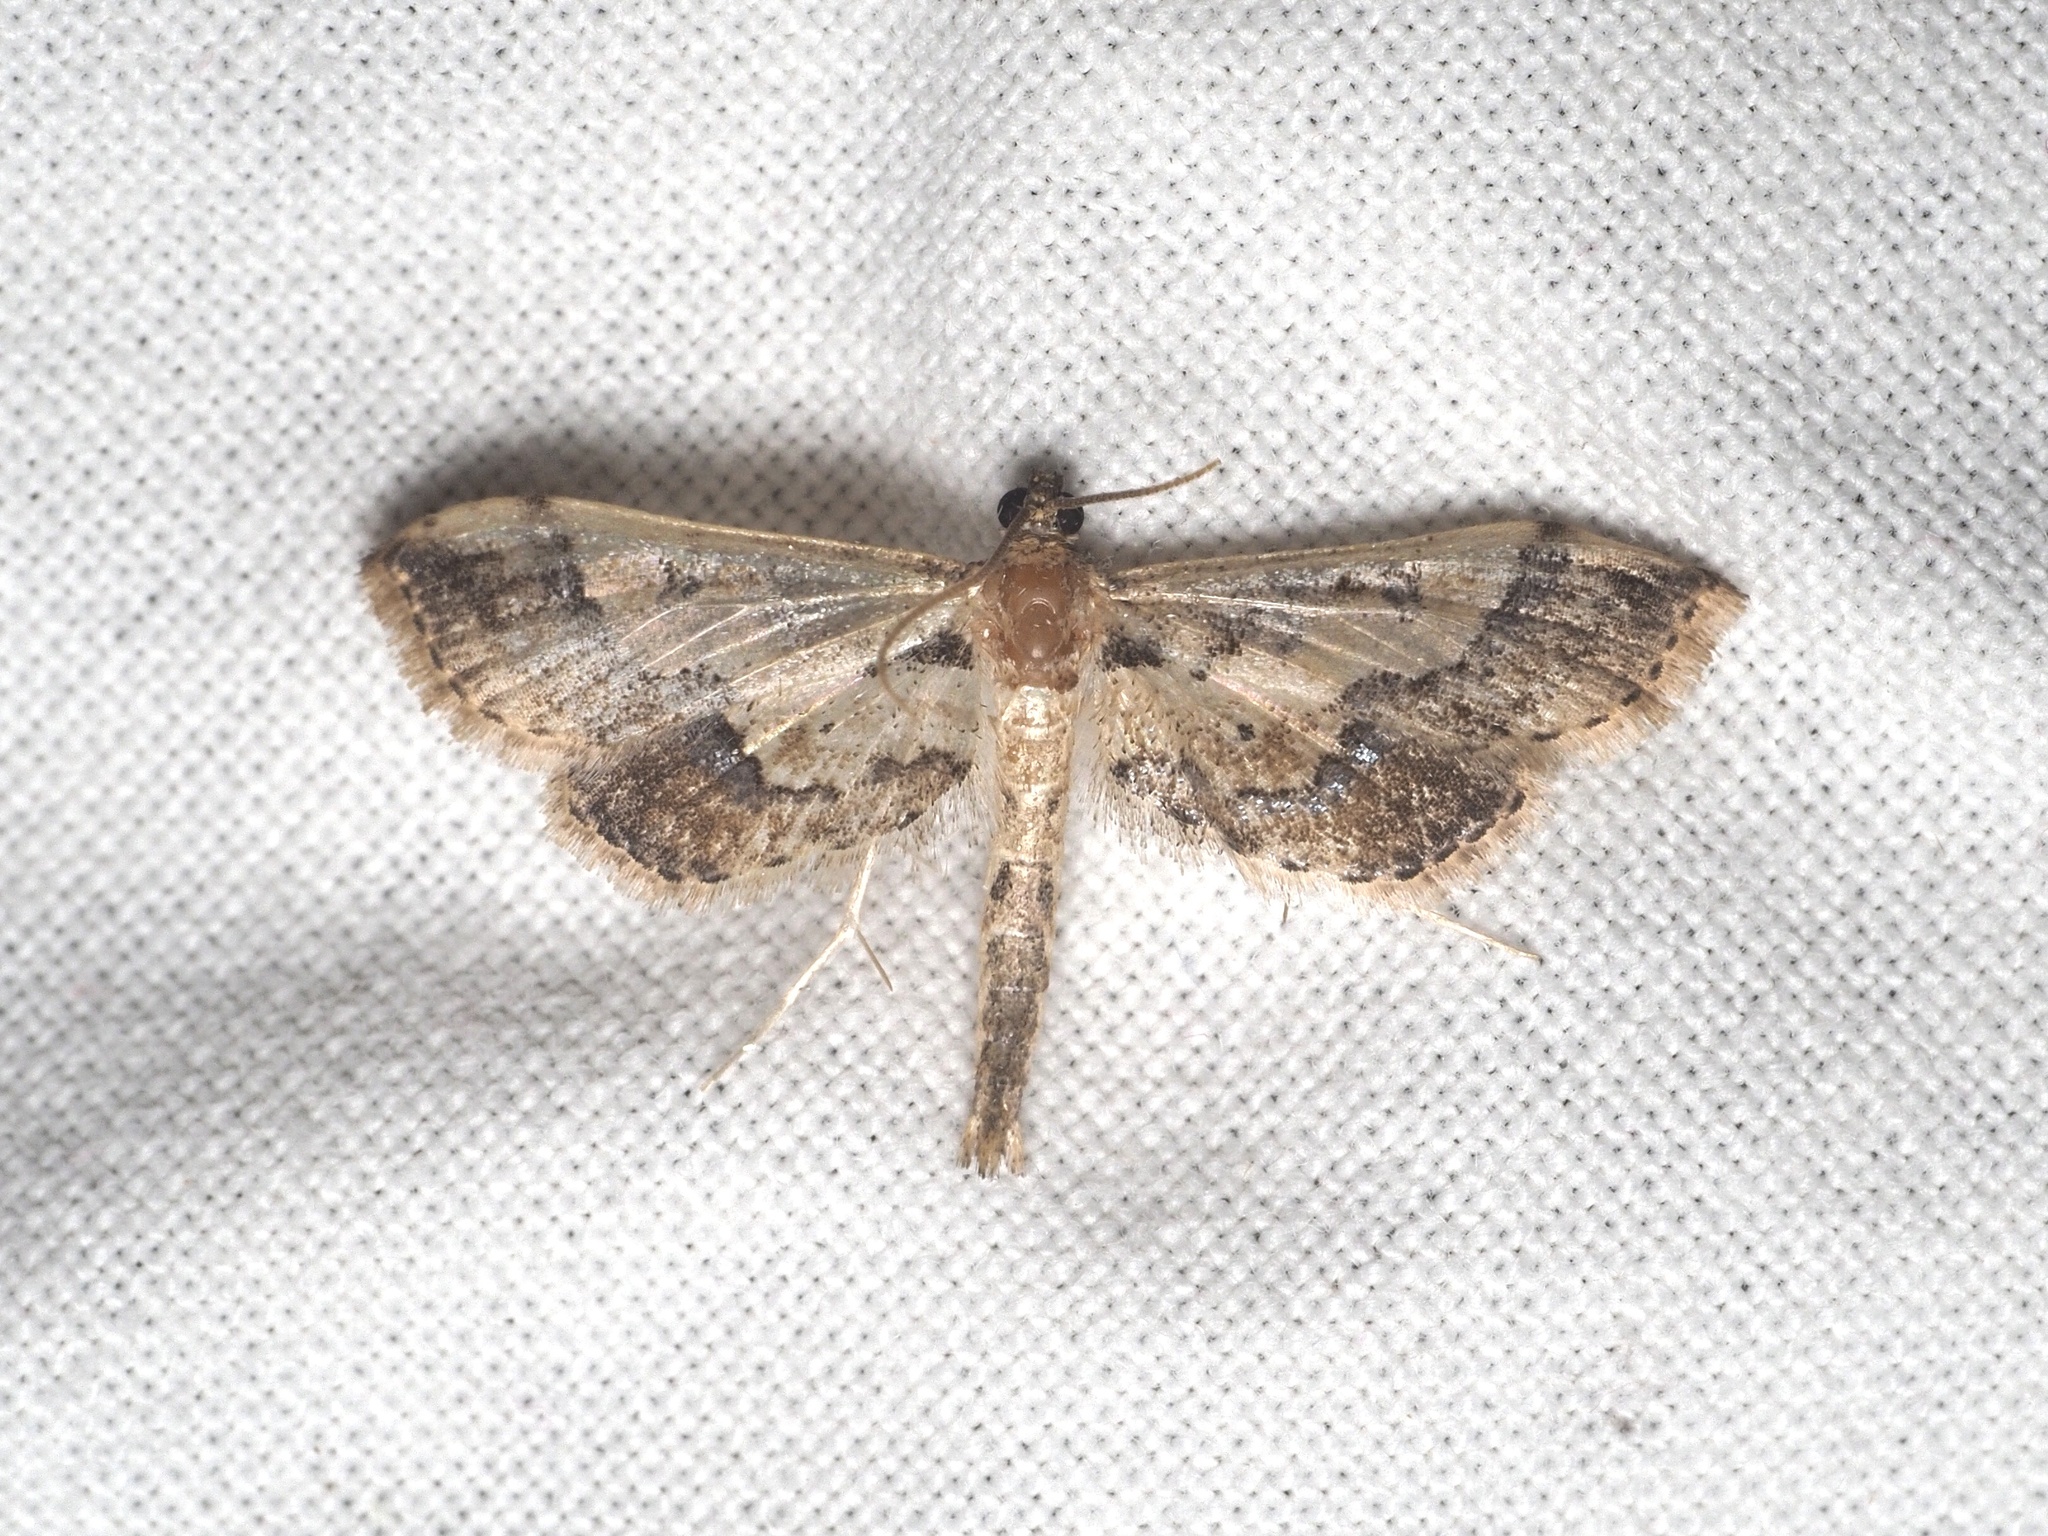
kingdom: Animalia
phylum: Arthropoda
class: Insecta
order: Lepidoptera
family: Crambidae
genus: Hydriris
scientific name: Hydriris ornatalis
